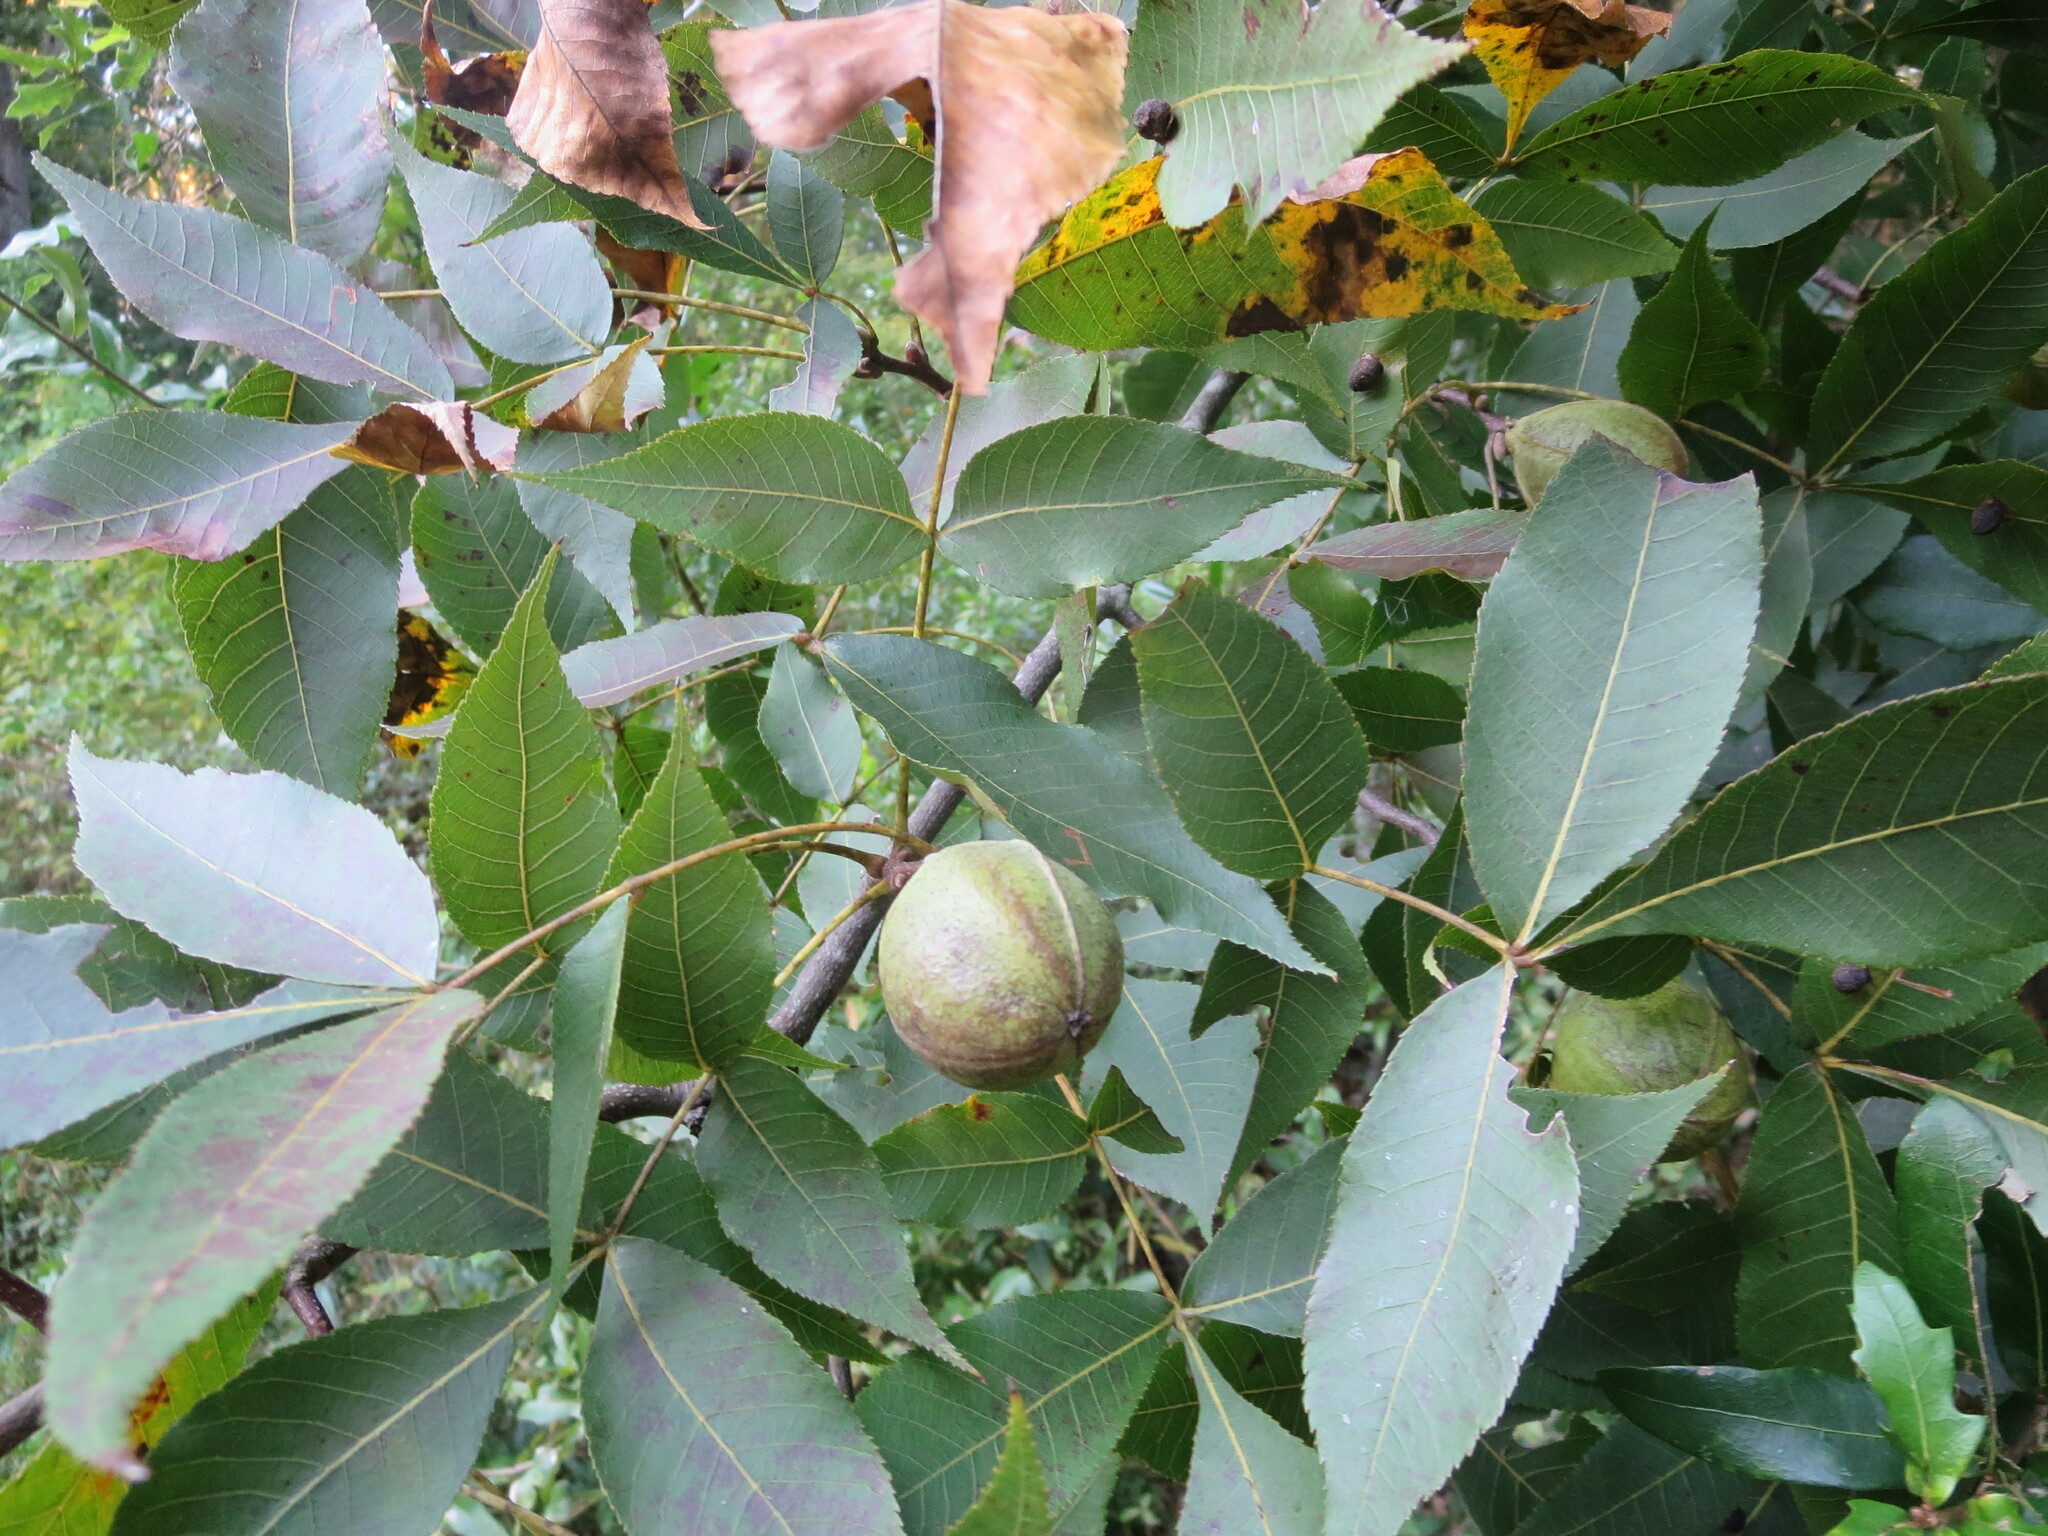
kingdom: Plantae
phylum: Tracheophyta
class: Magnoliopsida
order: Fagales
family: Juglandaceae
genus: Carya
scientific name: Carya glabra
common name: Pignut hickory
